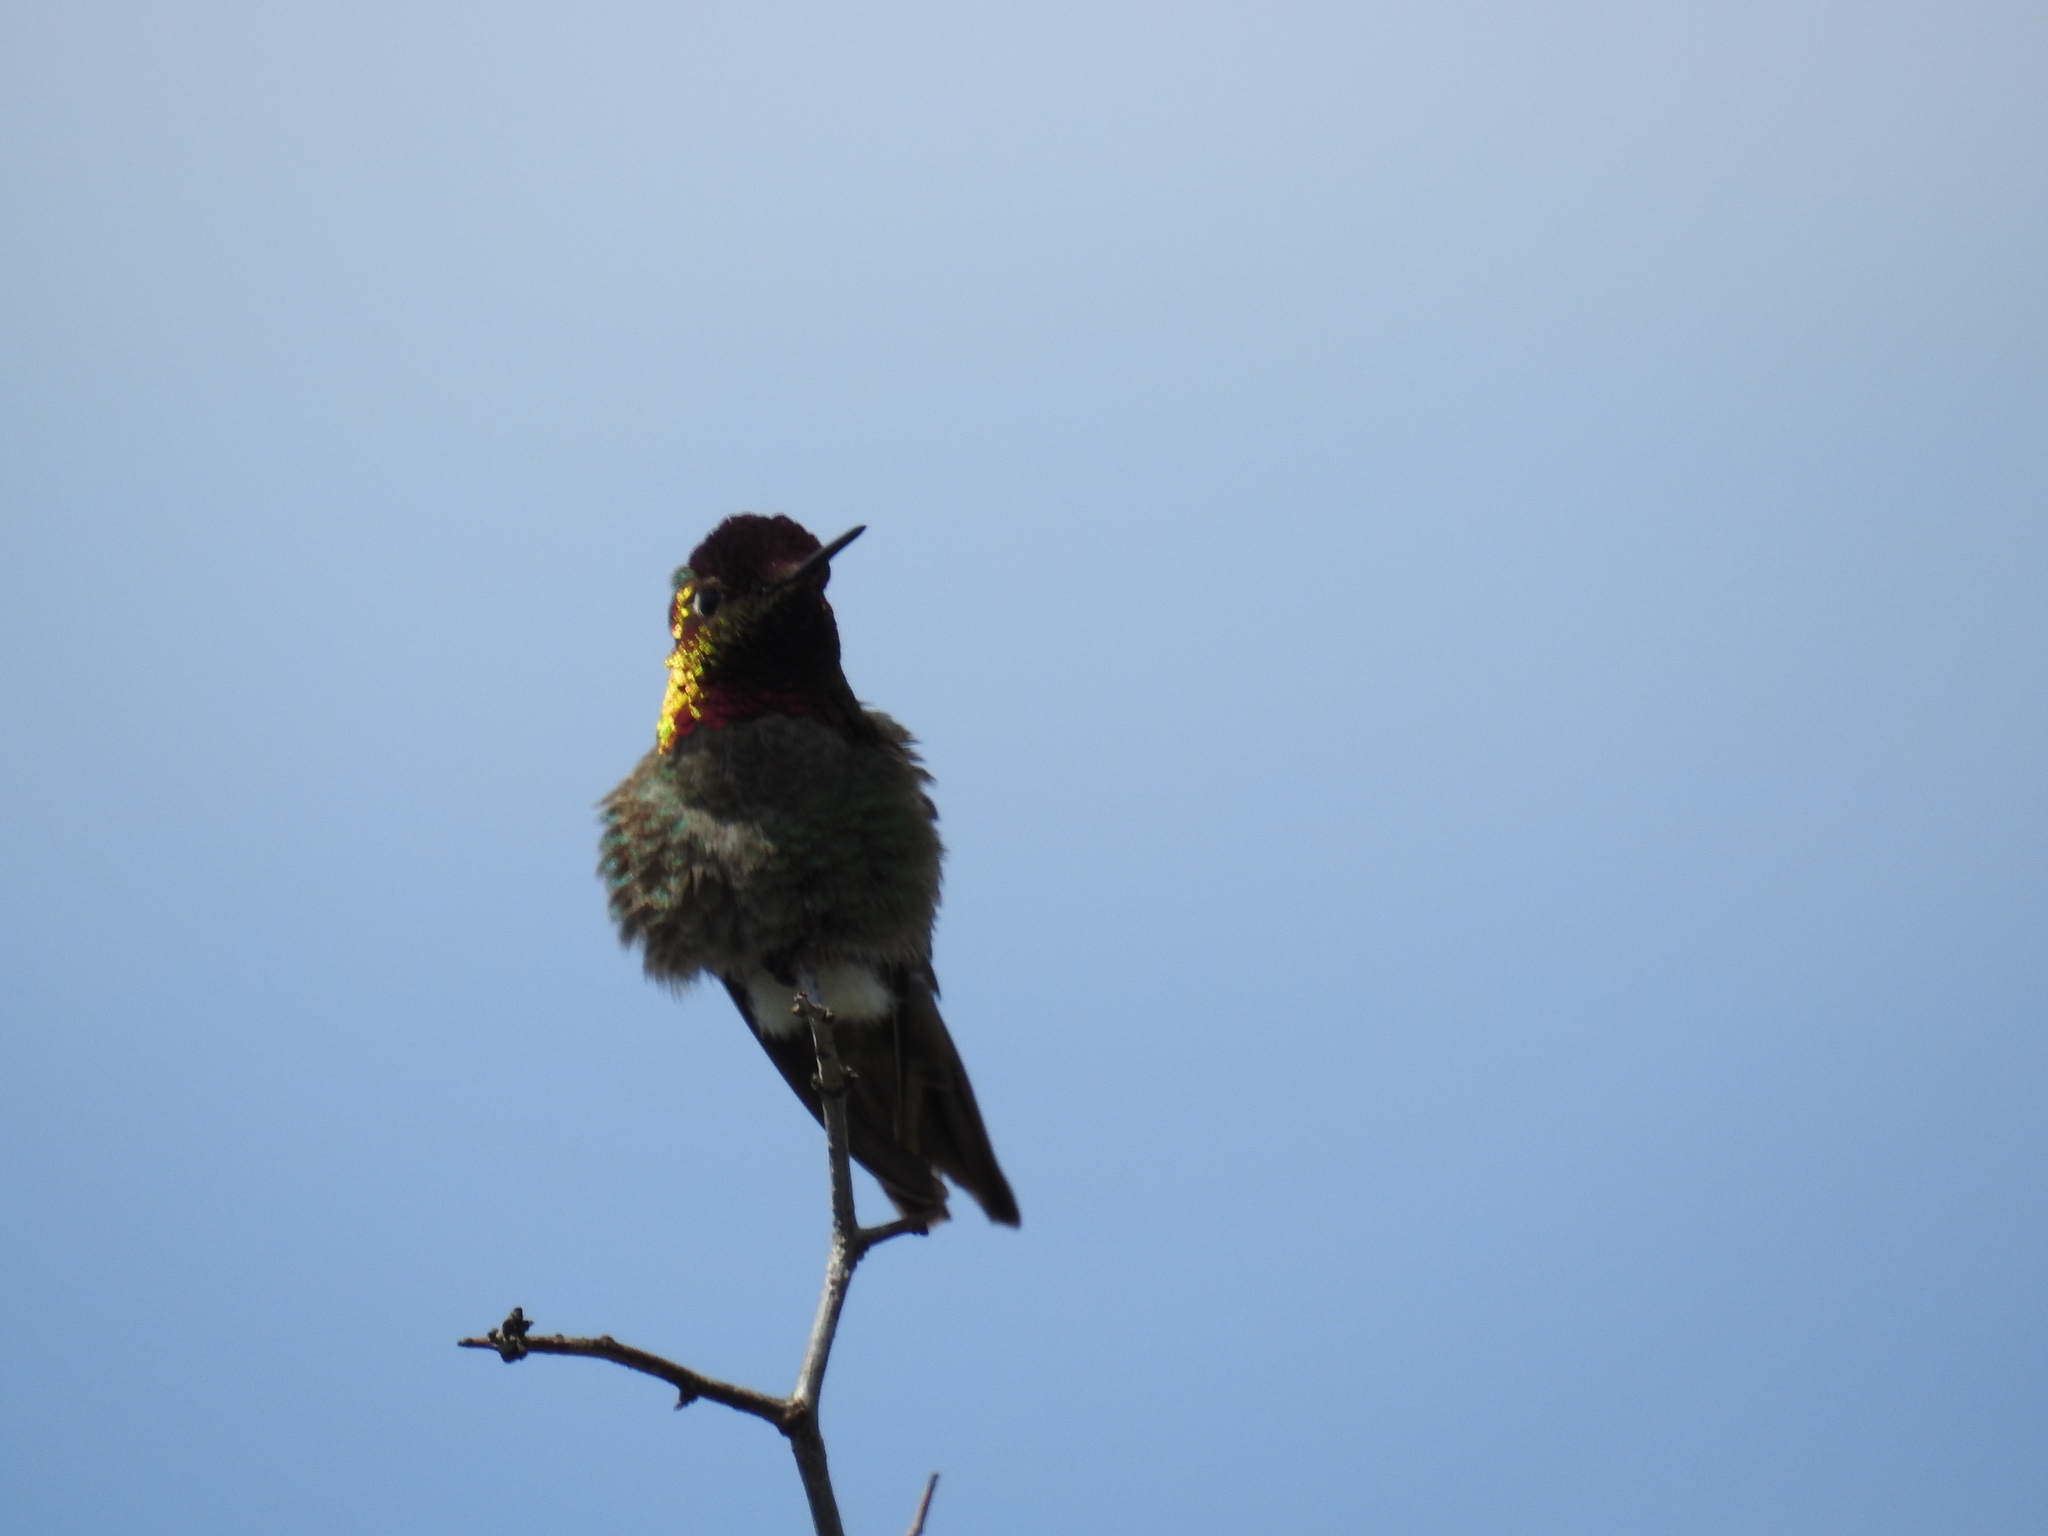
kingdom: Animalia
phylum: Chordata
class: Aves
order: Apodiformes
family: Trochilidae
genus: Calypte
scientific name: Calypte anna
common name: Anna's hummingbird
